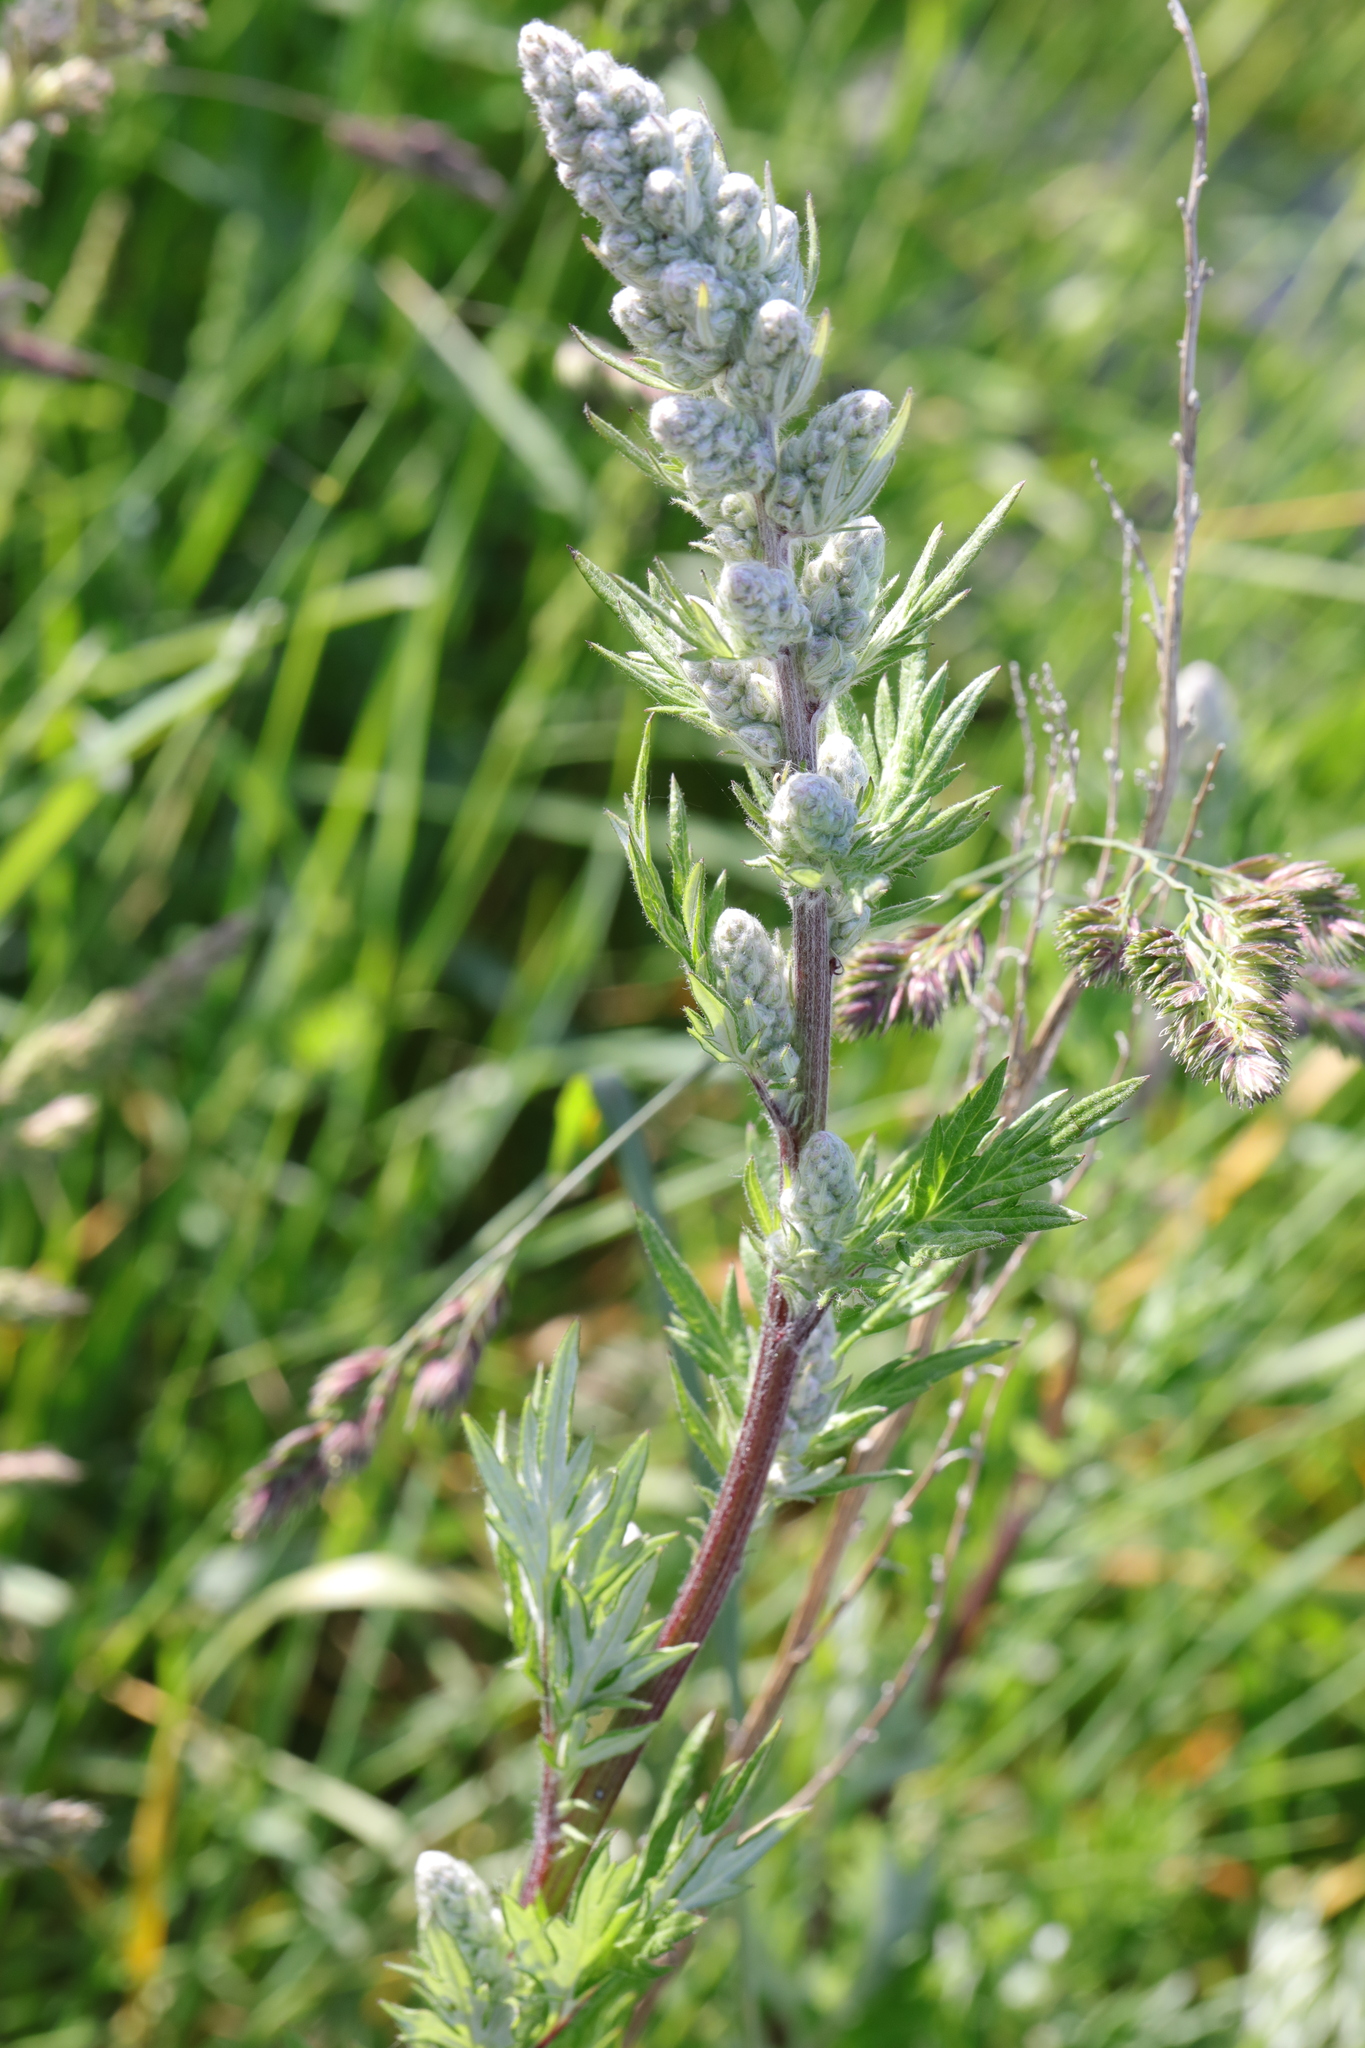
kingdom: Plantae
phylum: Tracheophyta
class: Magnoliopsida
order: Asterales
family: Asteraceae
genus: Artemisia
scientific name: Artemisia vulgaris
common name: Mugwort
